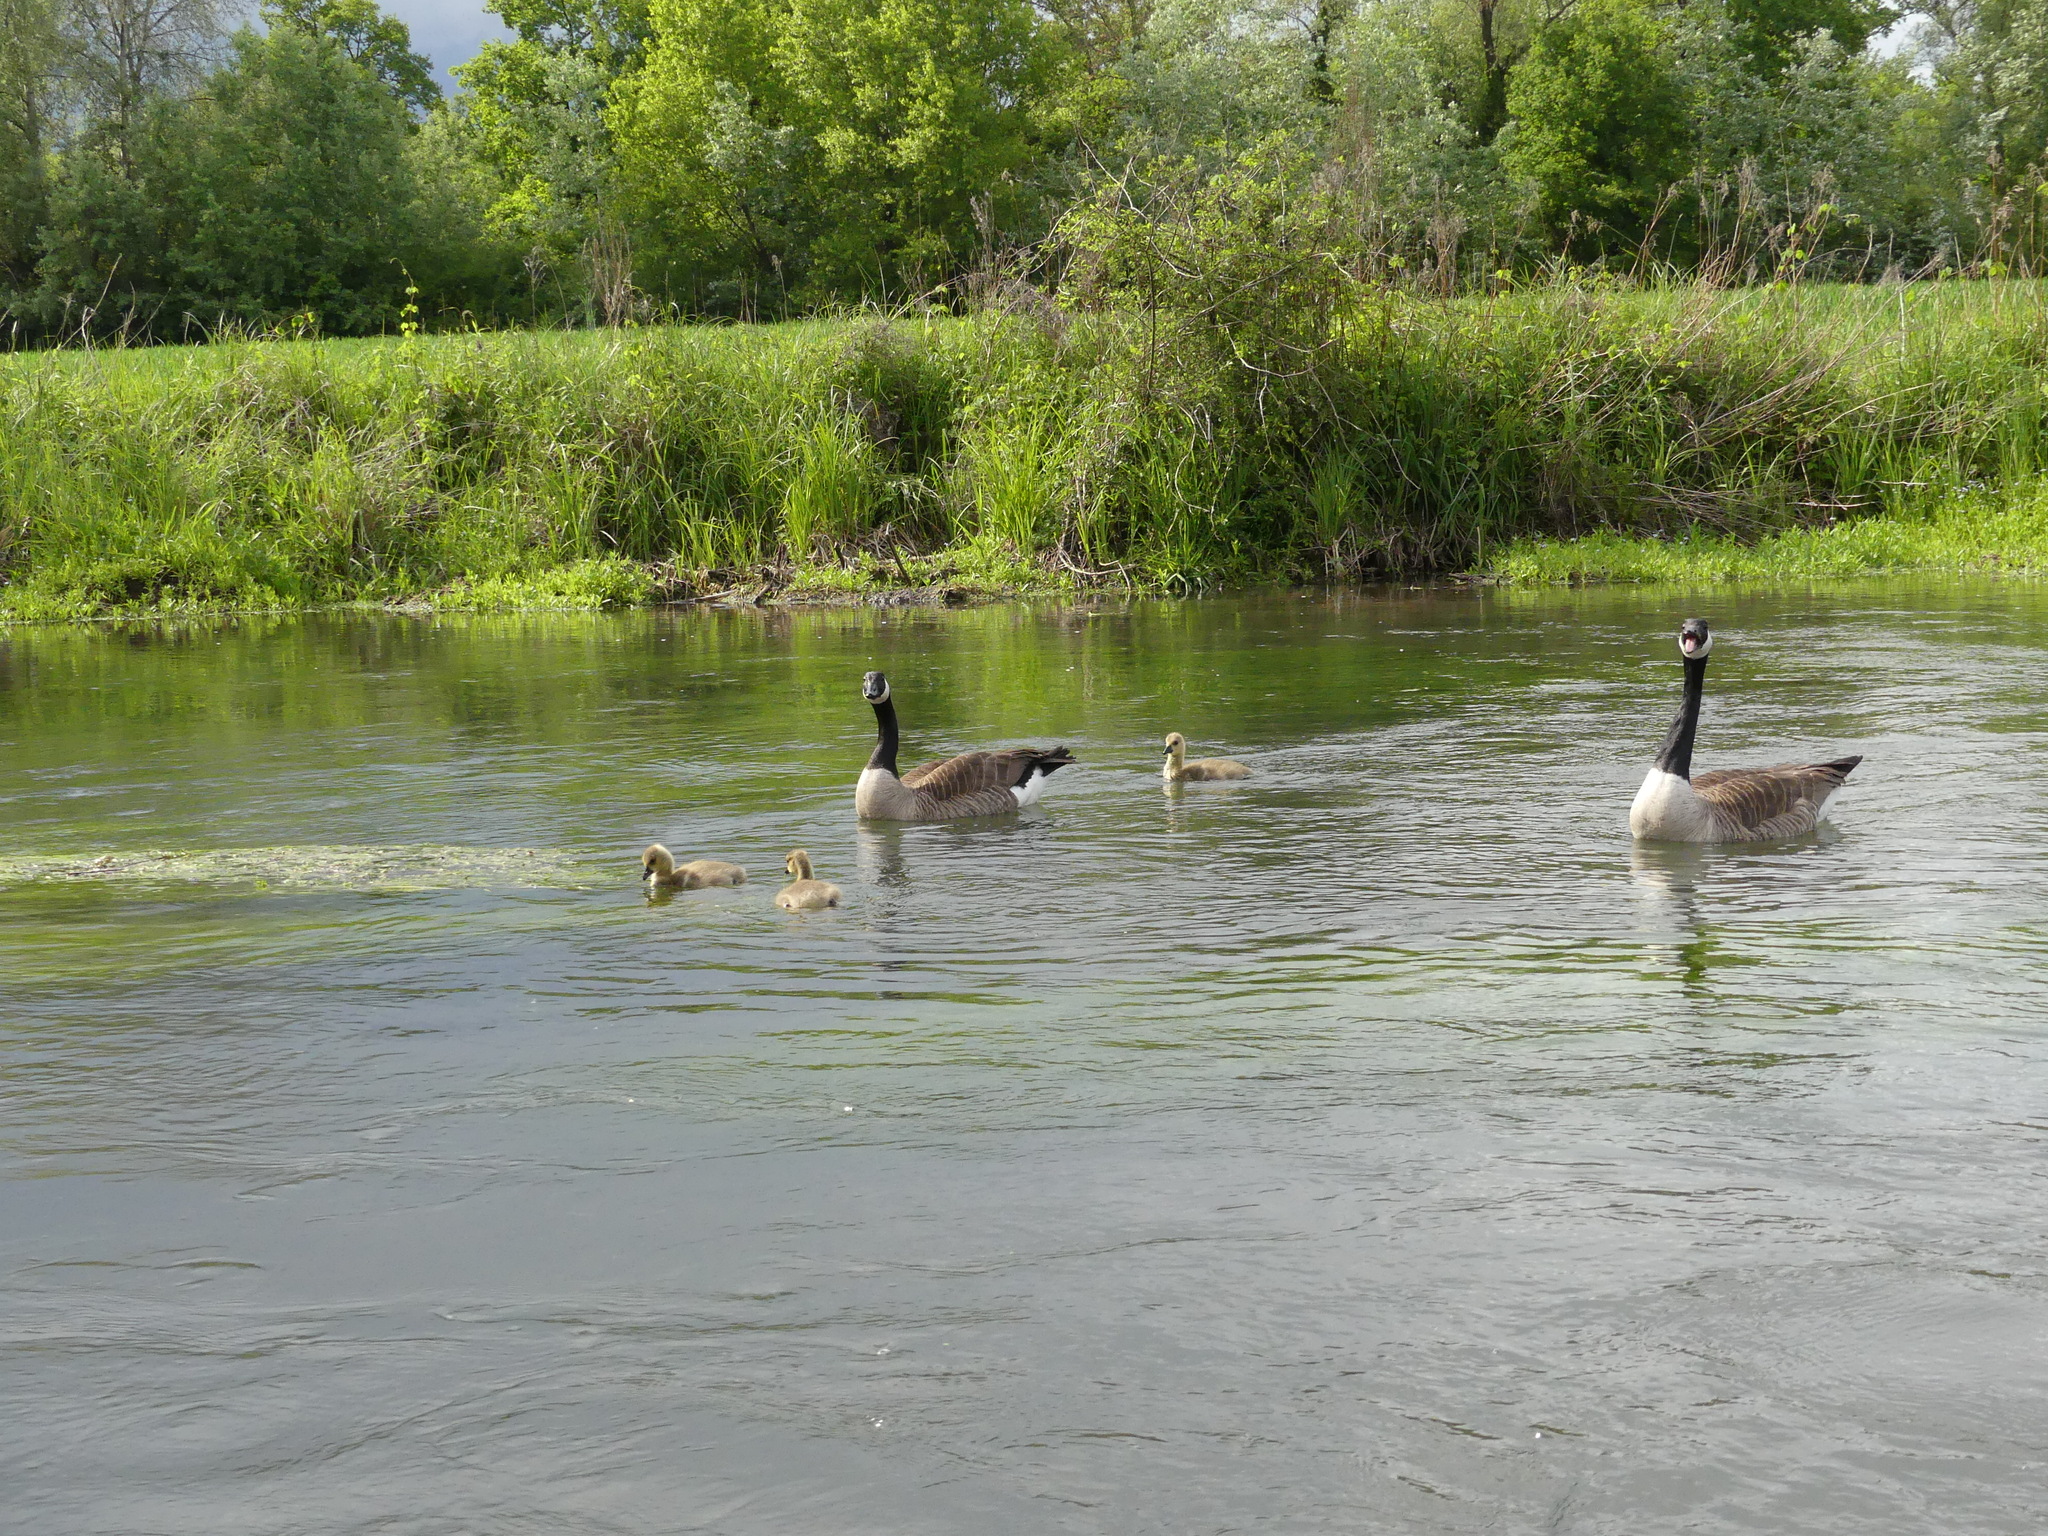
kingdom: Animalia
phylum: Chordata
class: Aves
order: Anseriformes
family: Anatidae
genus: Branta
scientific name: Branta canadensis
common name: Canada goose
